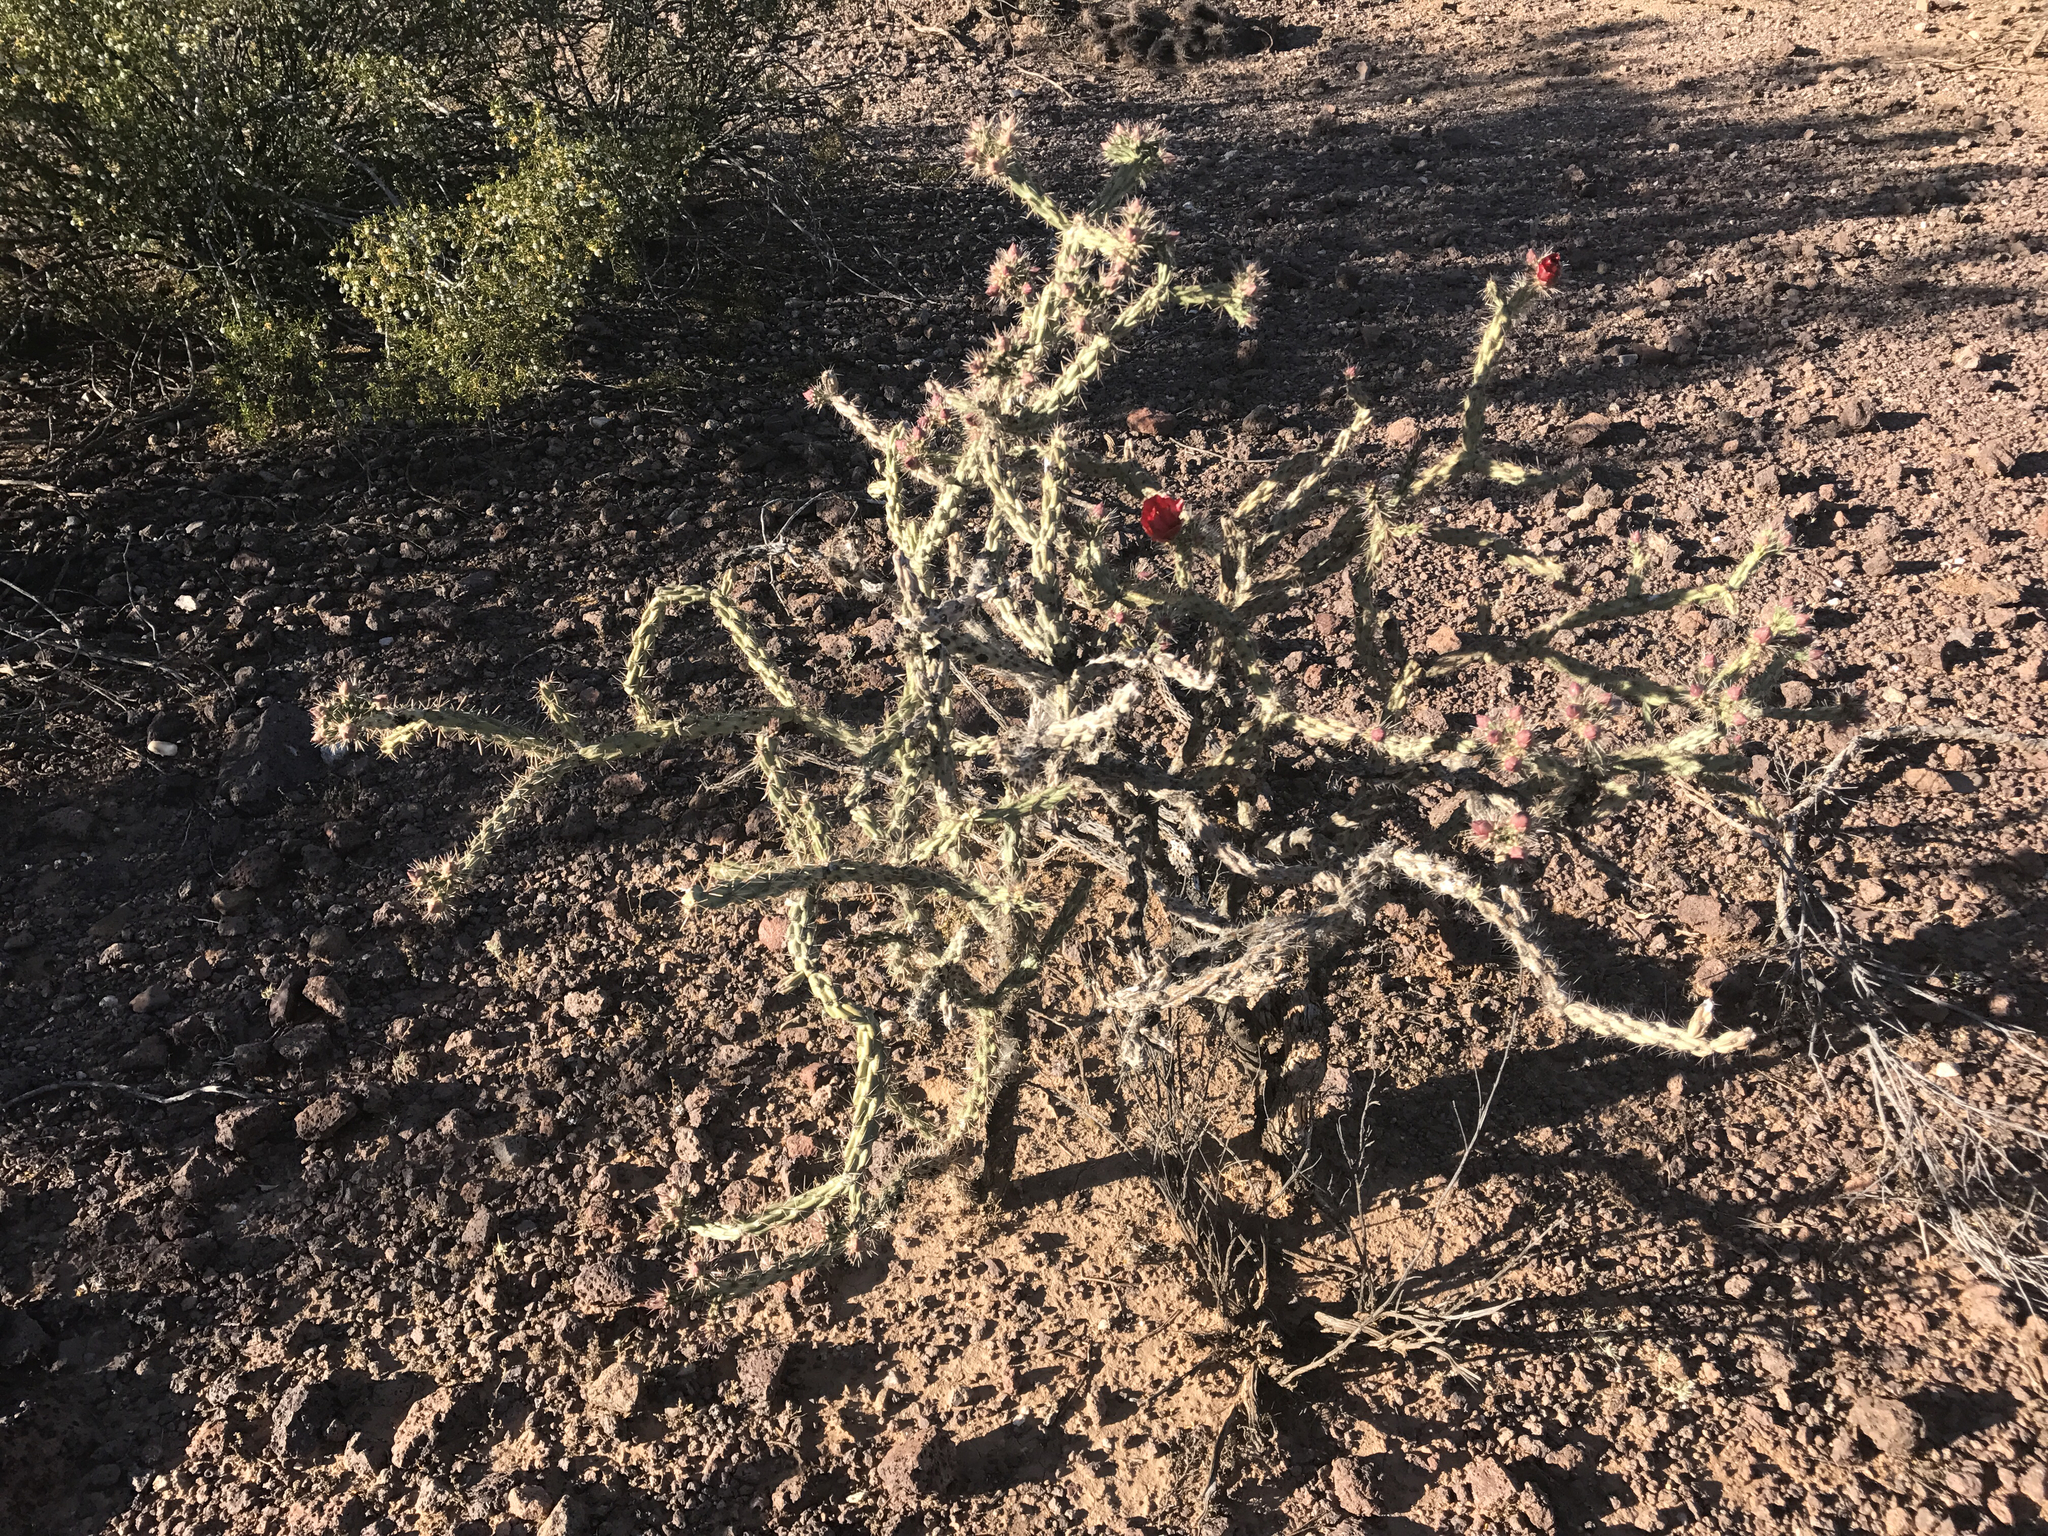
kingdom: Plantae
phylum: Tracheophyta
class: Magnoliopsida
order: Caryophyllales
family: Cactaceae
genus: Cylindropuntia
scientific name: Cylindropuntia acanthocarpa
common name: Buckhorn cholla
